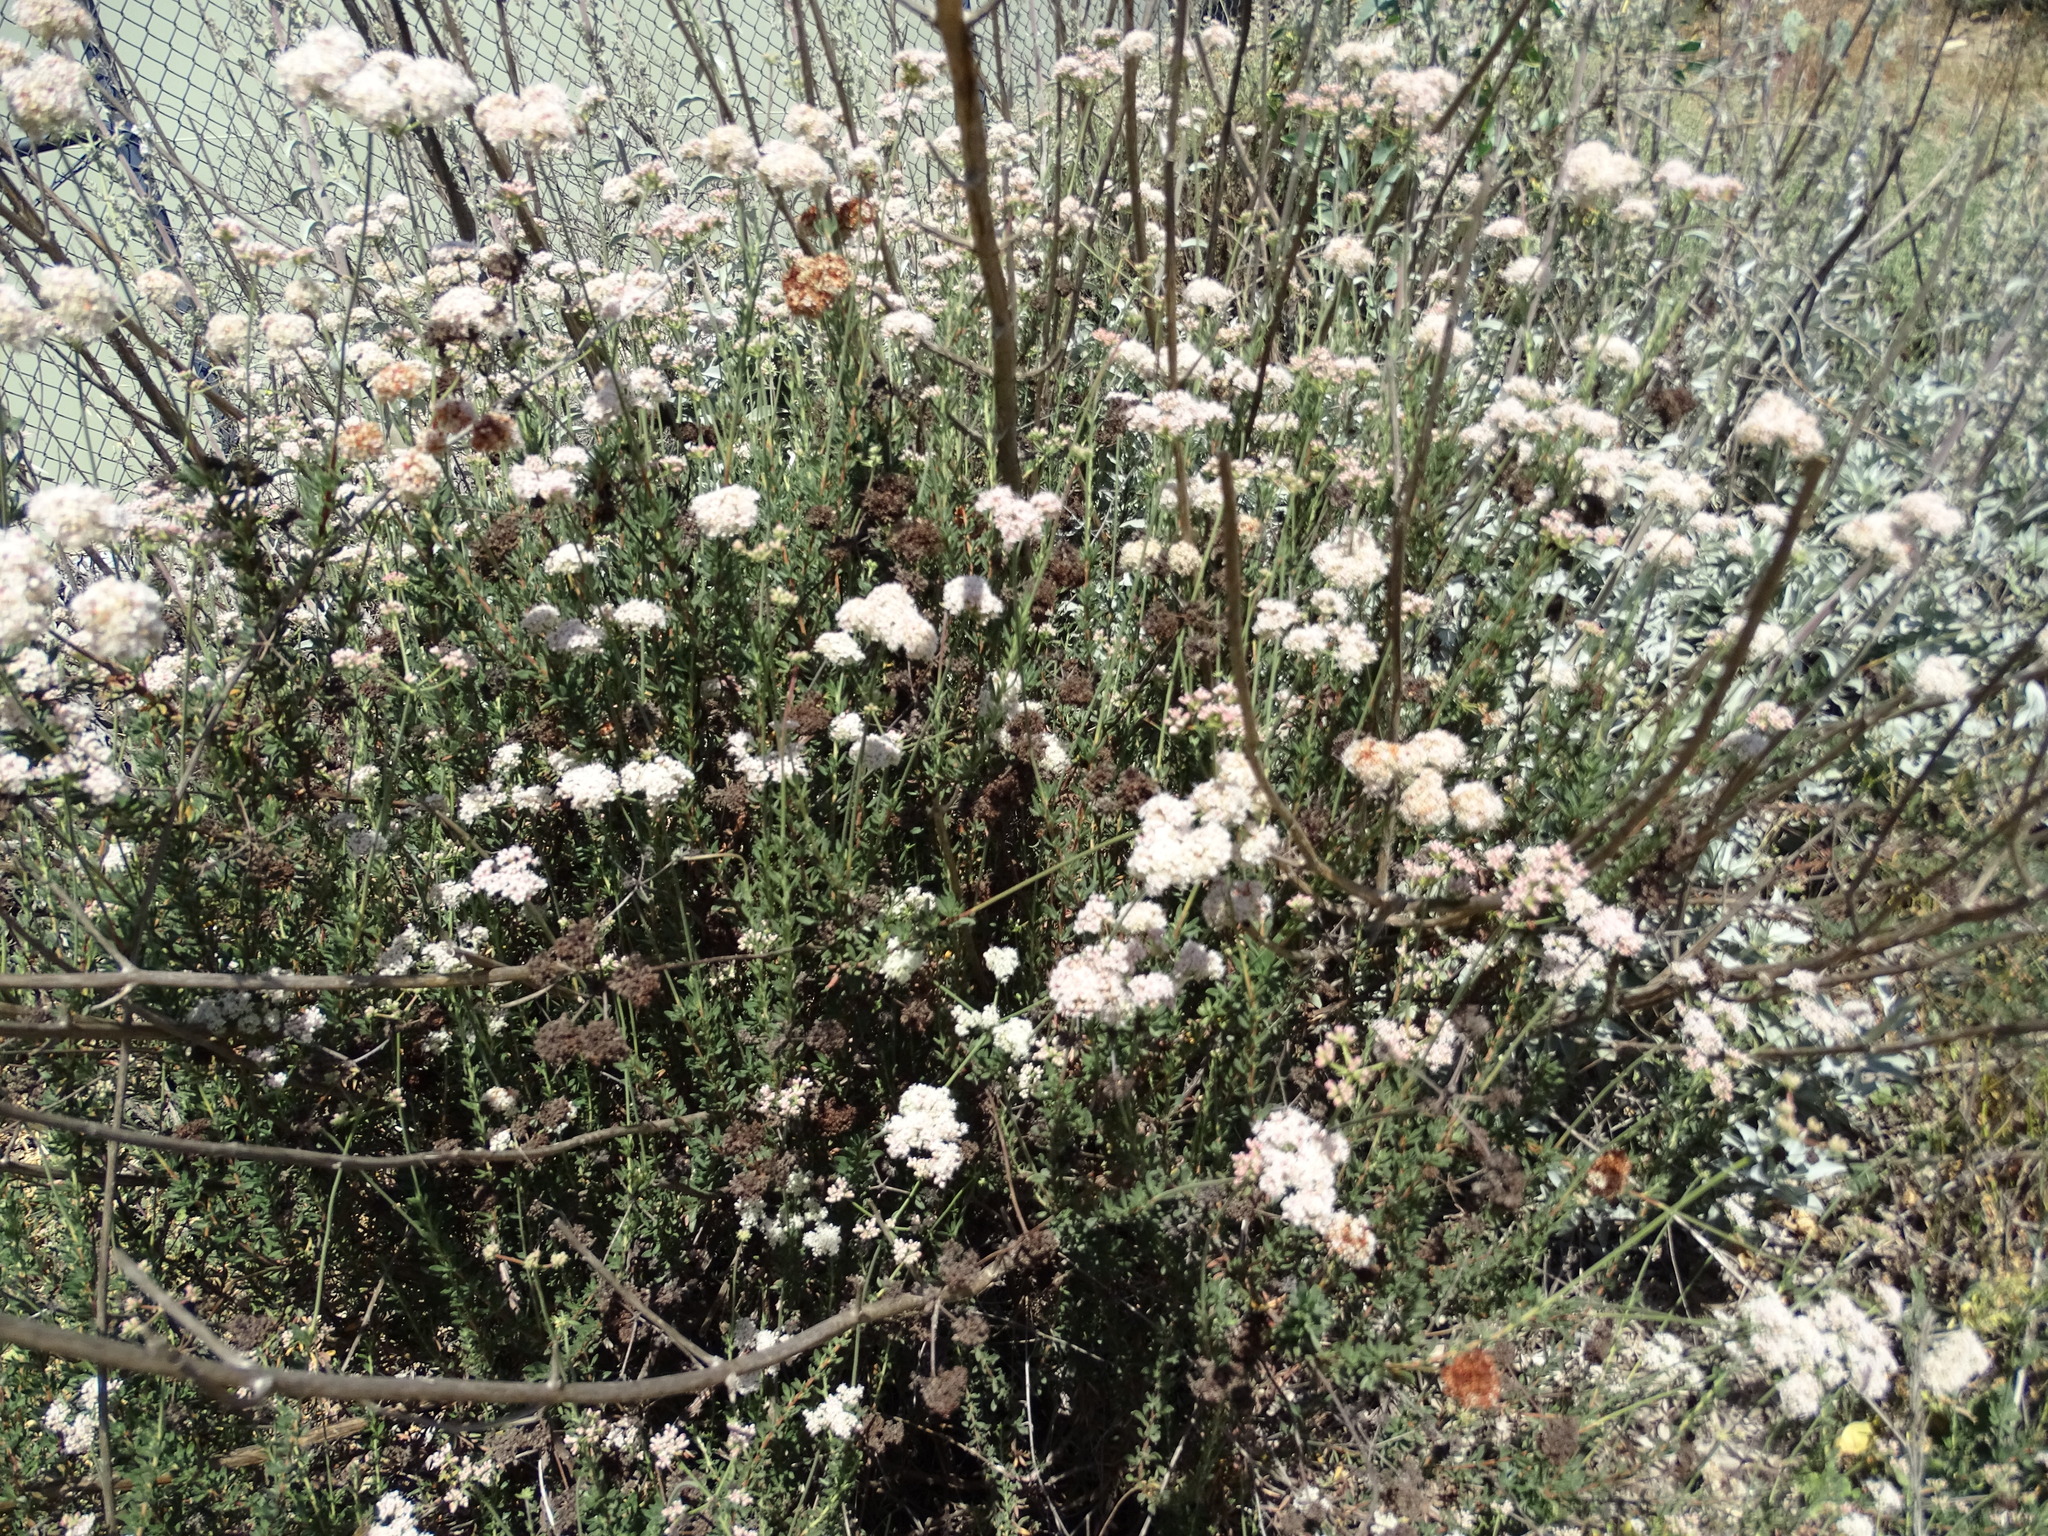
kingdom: Plantae
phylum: Tracheophyta
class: Magnoliopsida
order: Caryophyllales
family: Polygonaceae
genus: Eriogonum
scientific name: Eriogonum fasciculatum
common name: California wild buckwheat
